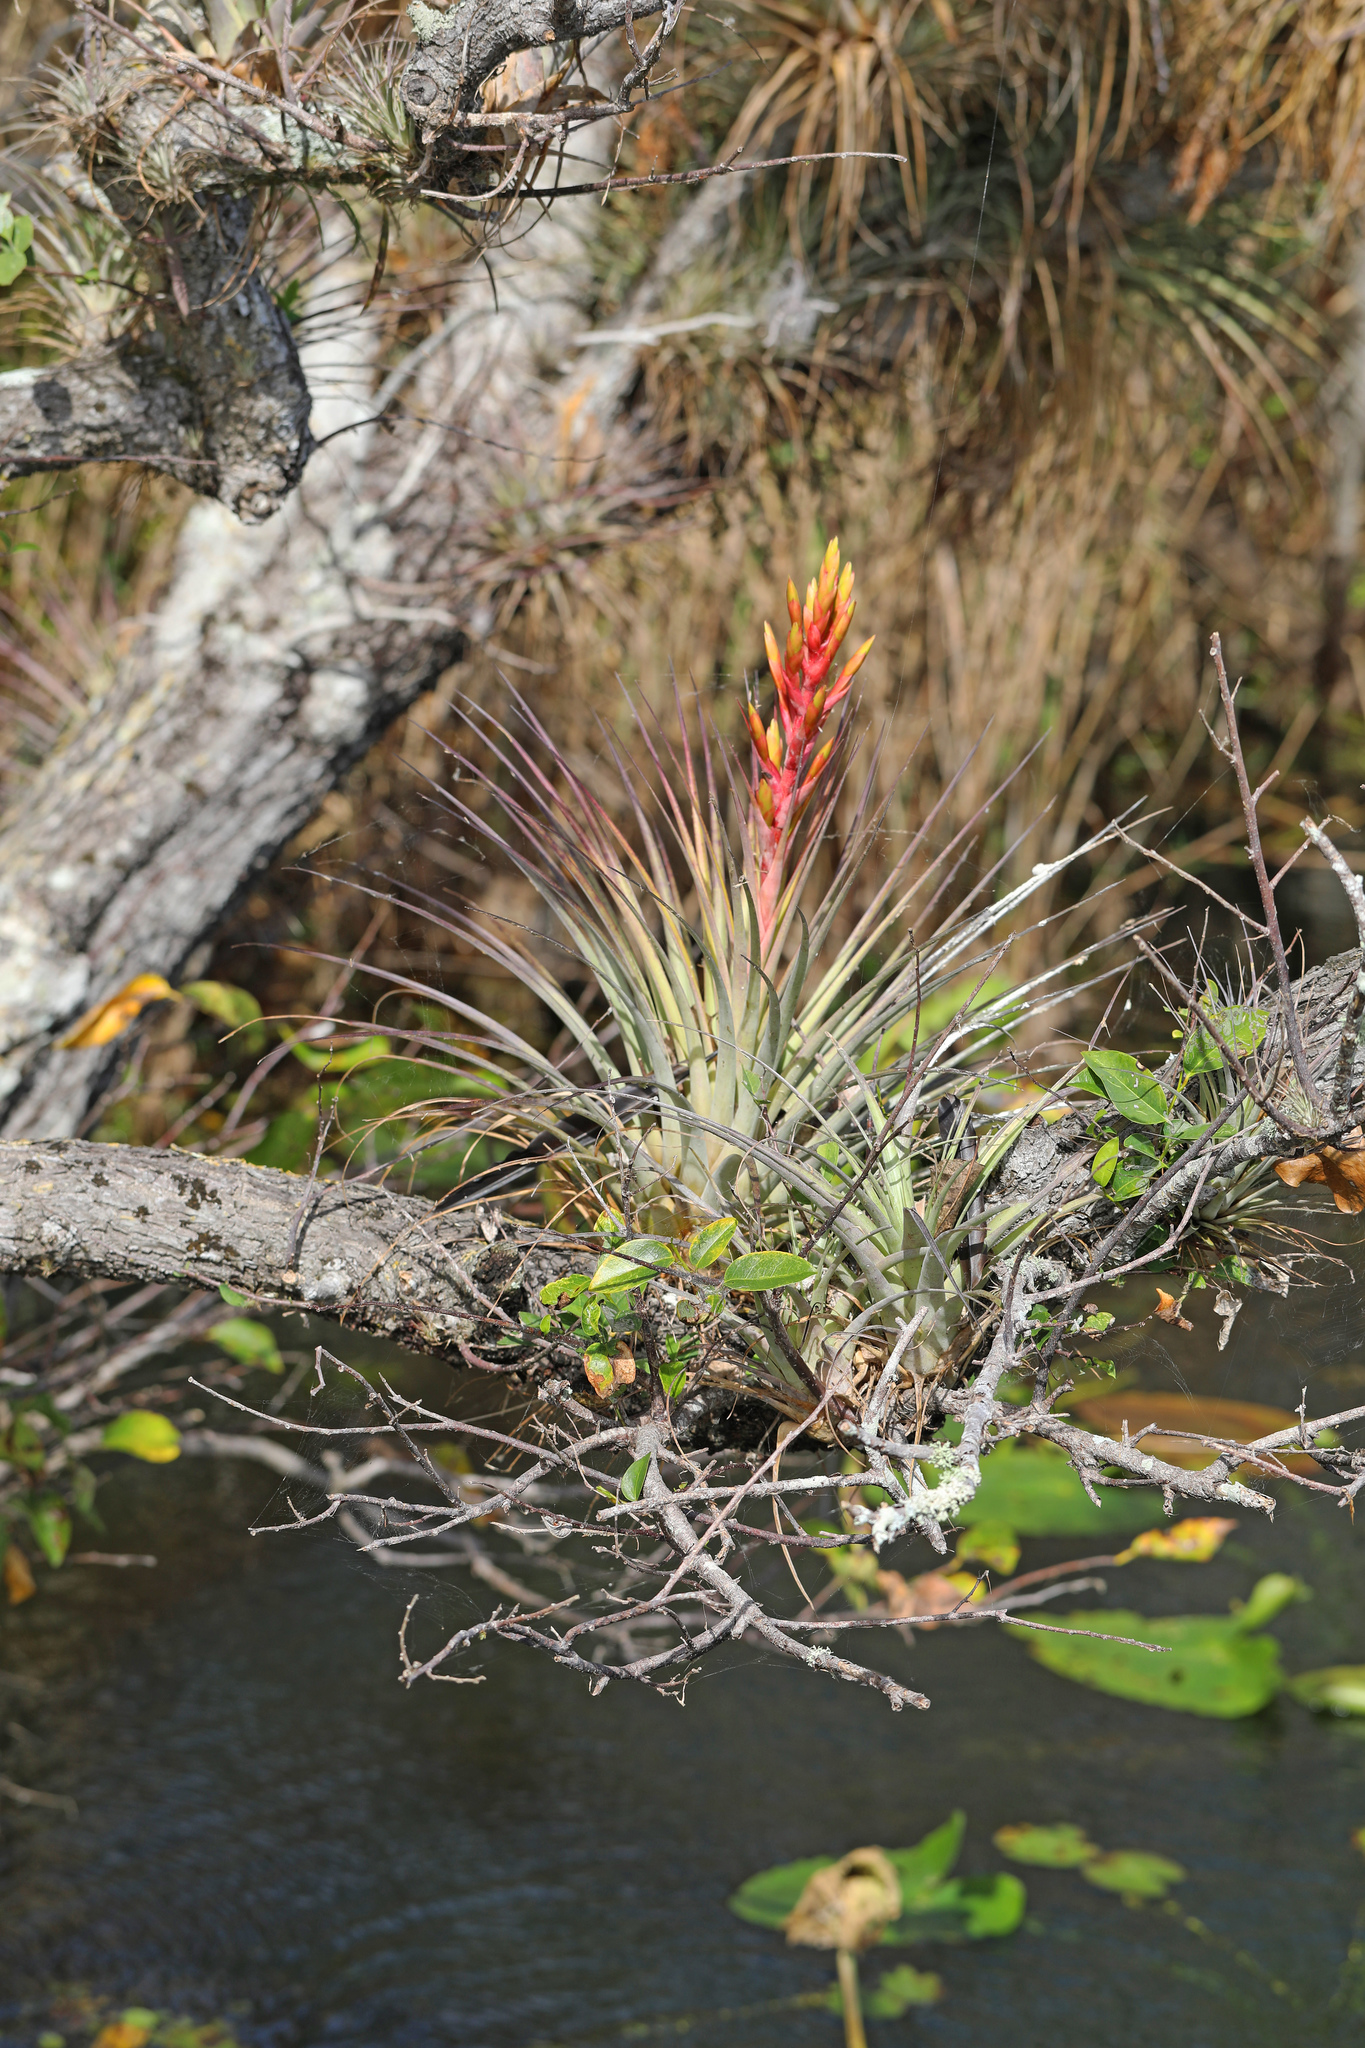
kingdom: Plantae
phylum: Tracheophyta
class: Liliopsida
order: Poales
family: Bromeliaceae
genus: Tillandsia
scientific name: Tillandsia fasciculata
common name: Giant airplant
